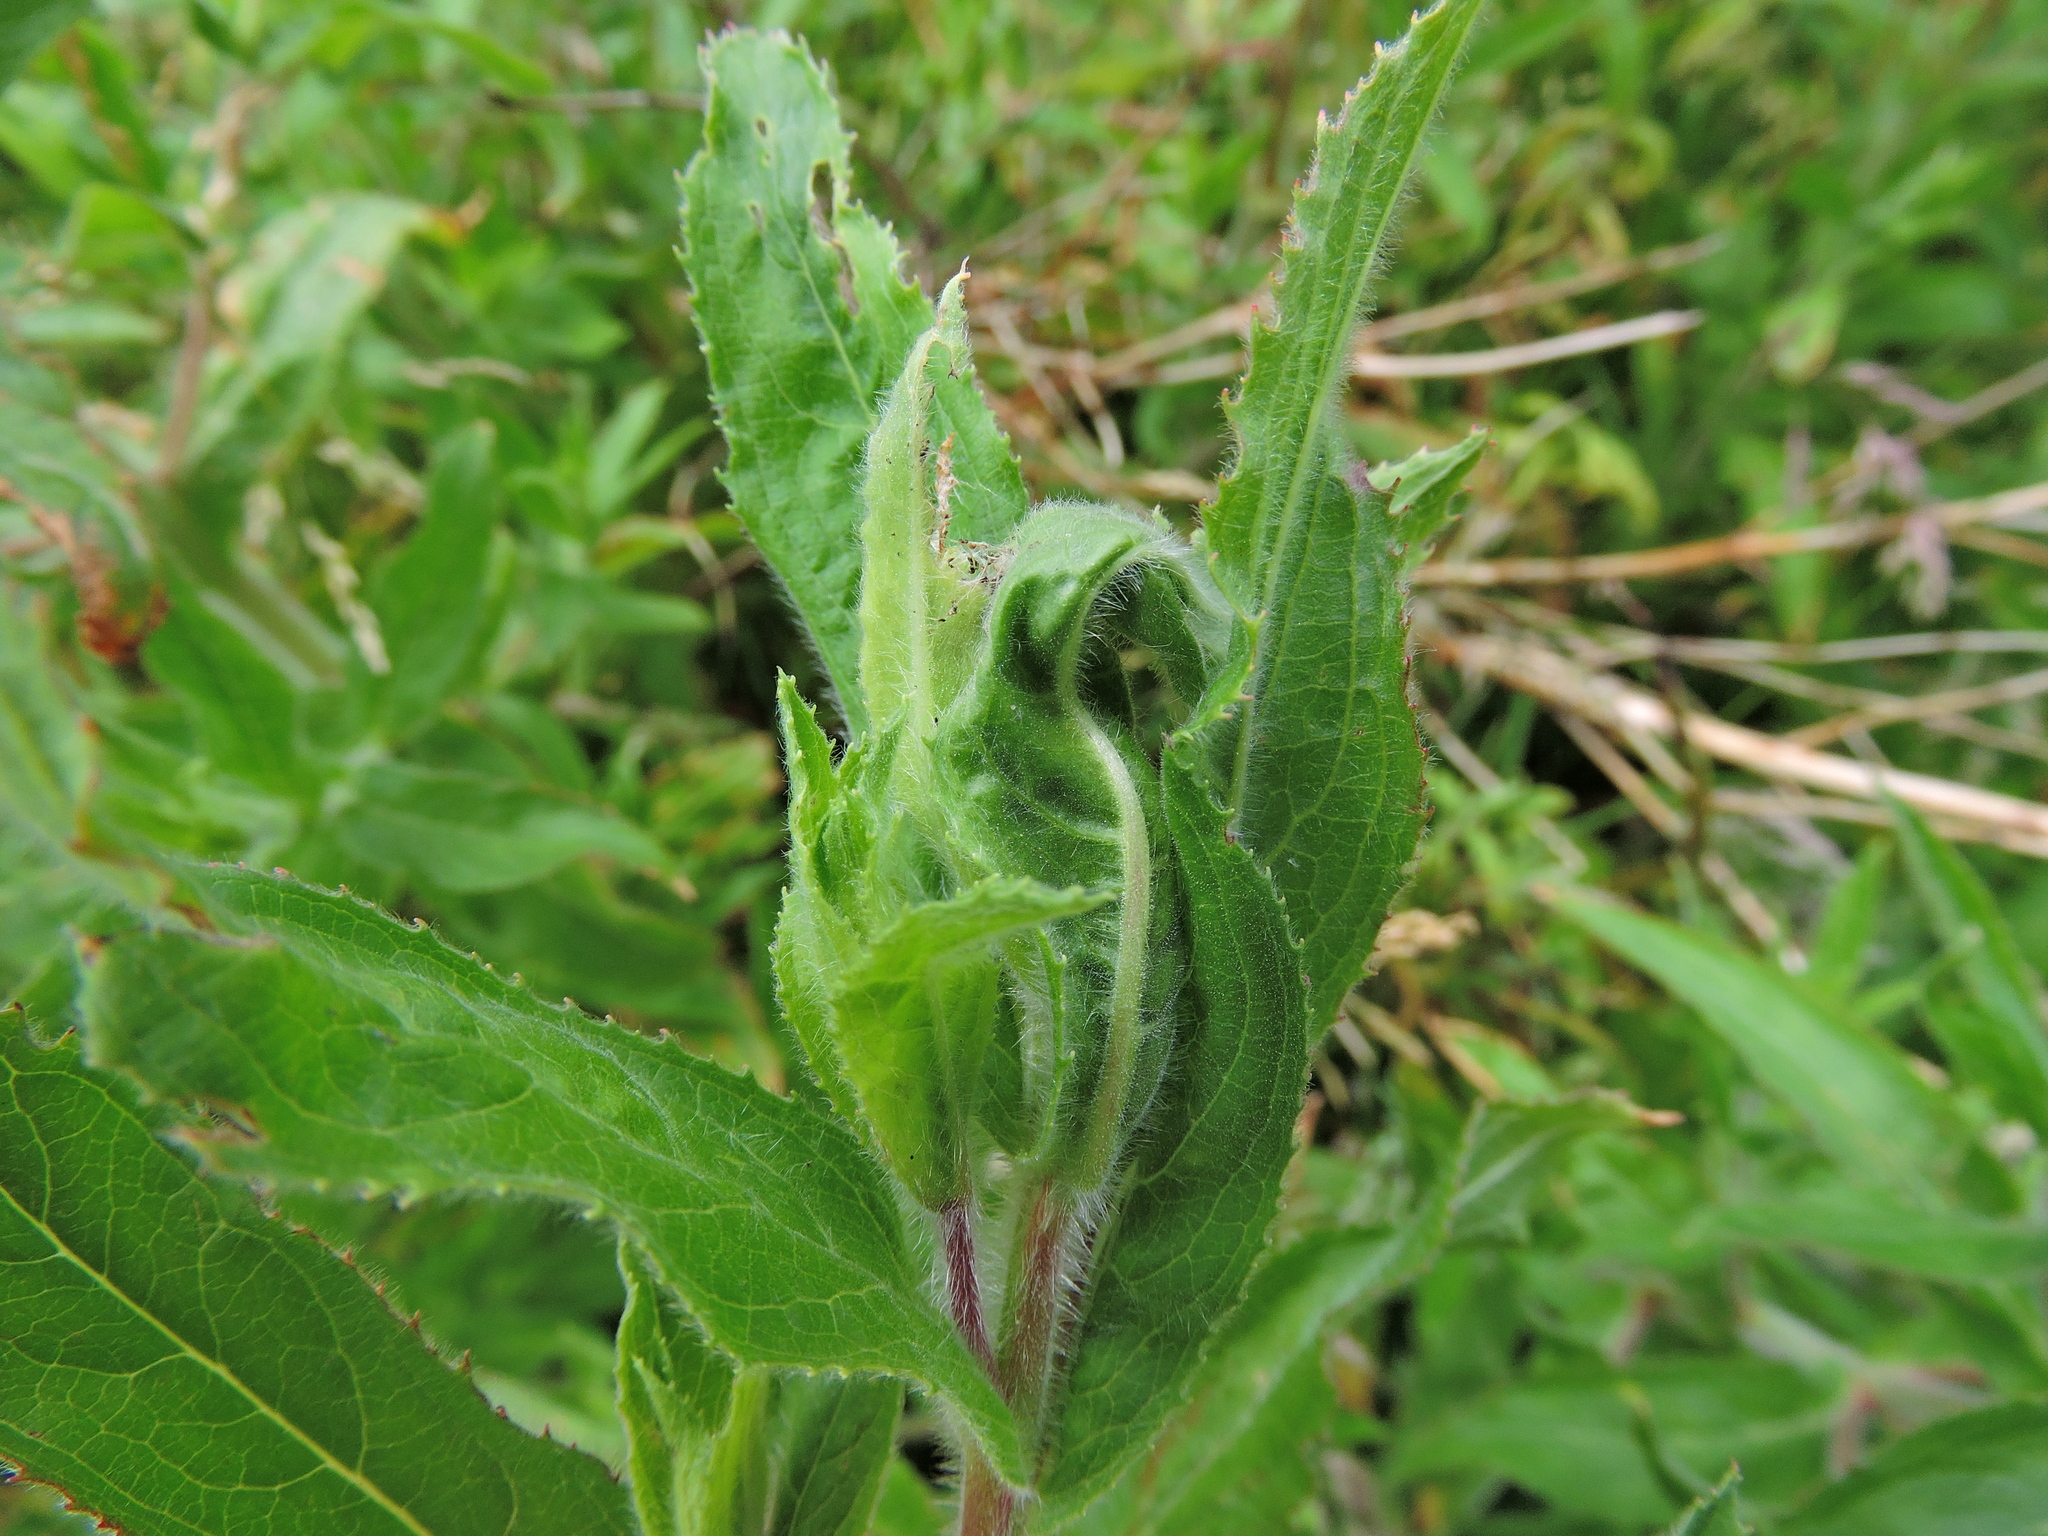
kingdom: Animalia
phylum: Arthropoda
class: Insecta
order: Lepidoptera
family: Momphidae
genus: Mompha
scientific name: Mompha epilobiella
